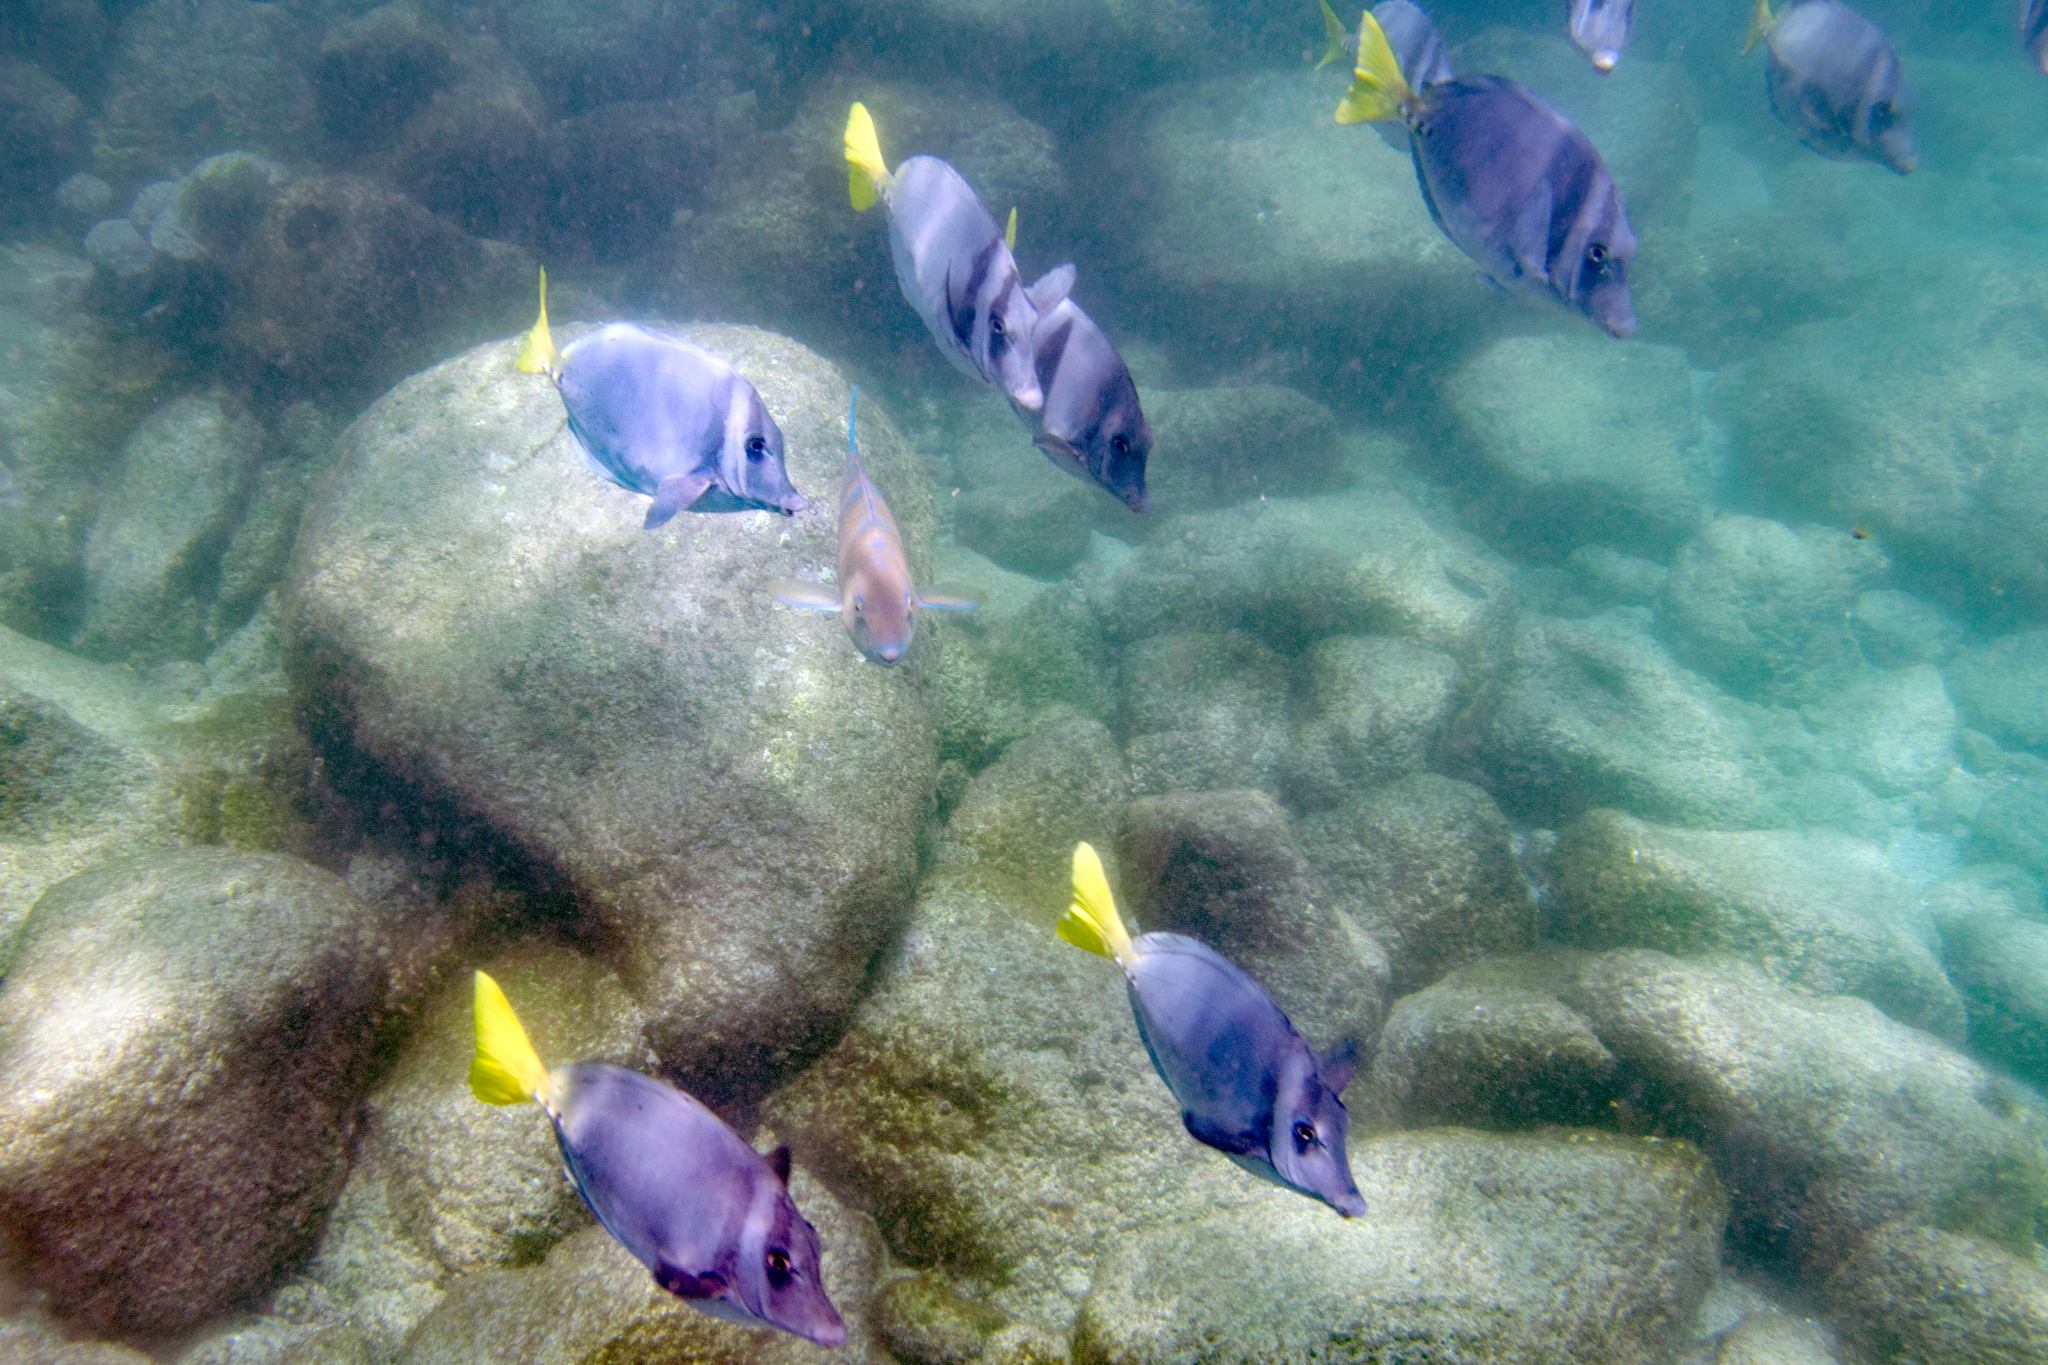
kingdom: Animalia
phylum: Chordata
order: Perciformes
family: Acanthuridae
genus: Prionurus
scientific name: Prionurus laticlavius
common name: Razor surgeonfish
